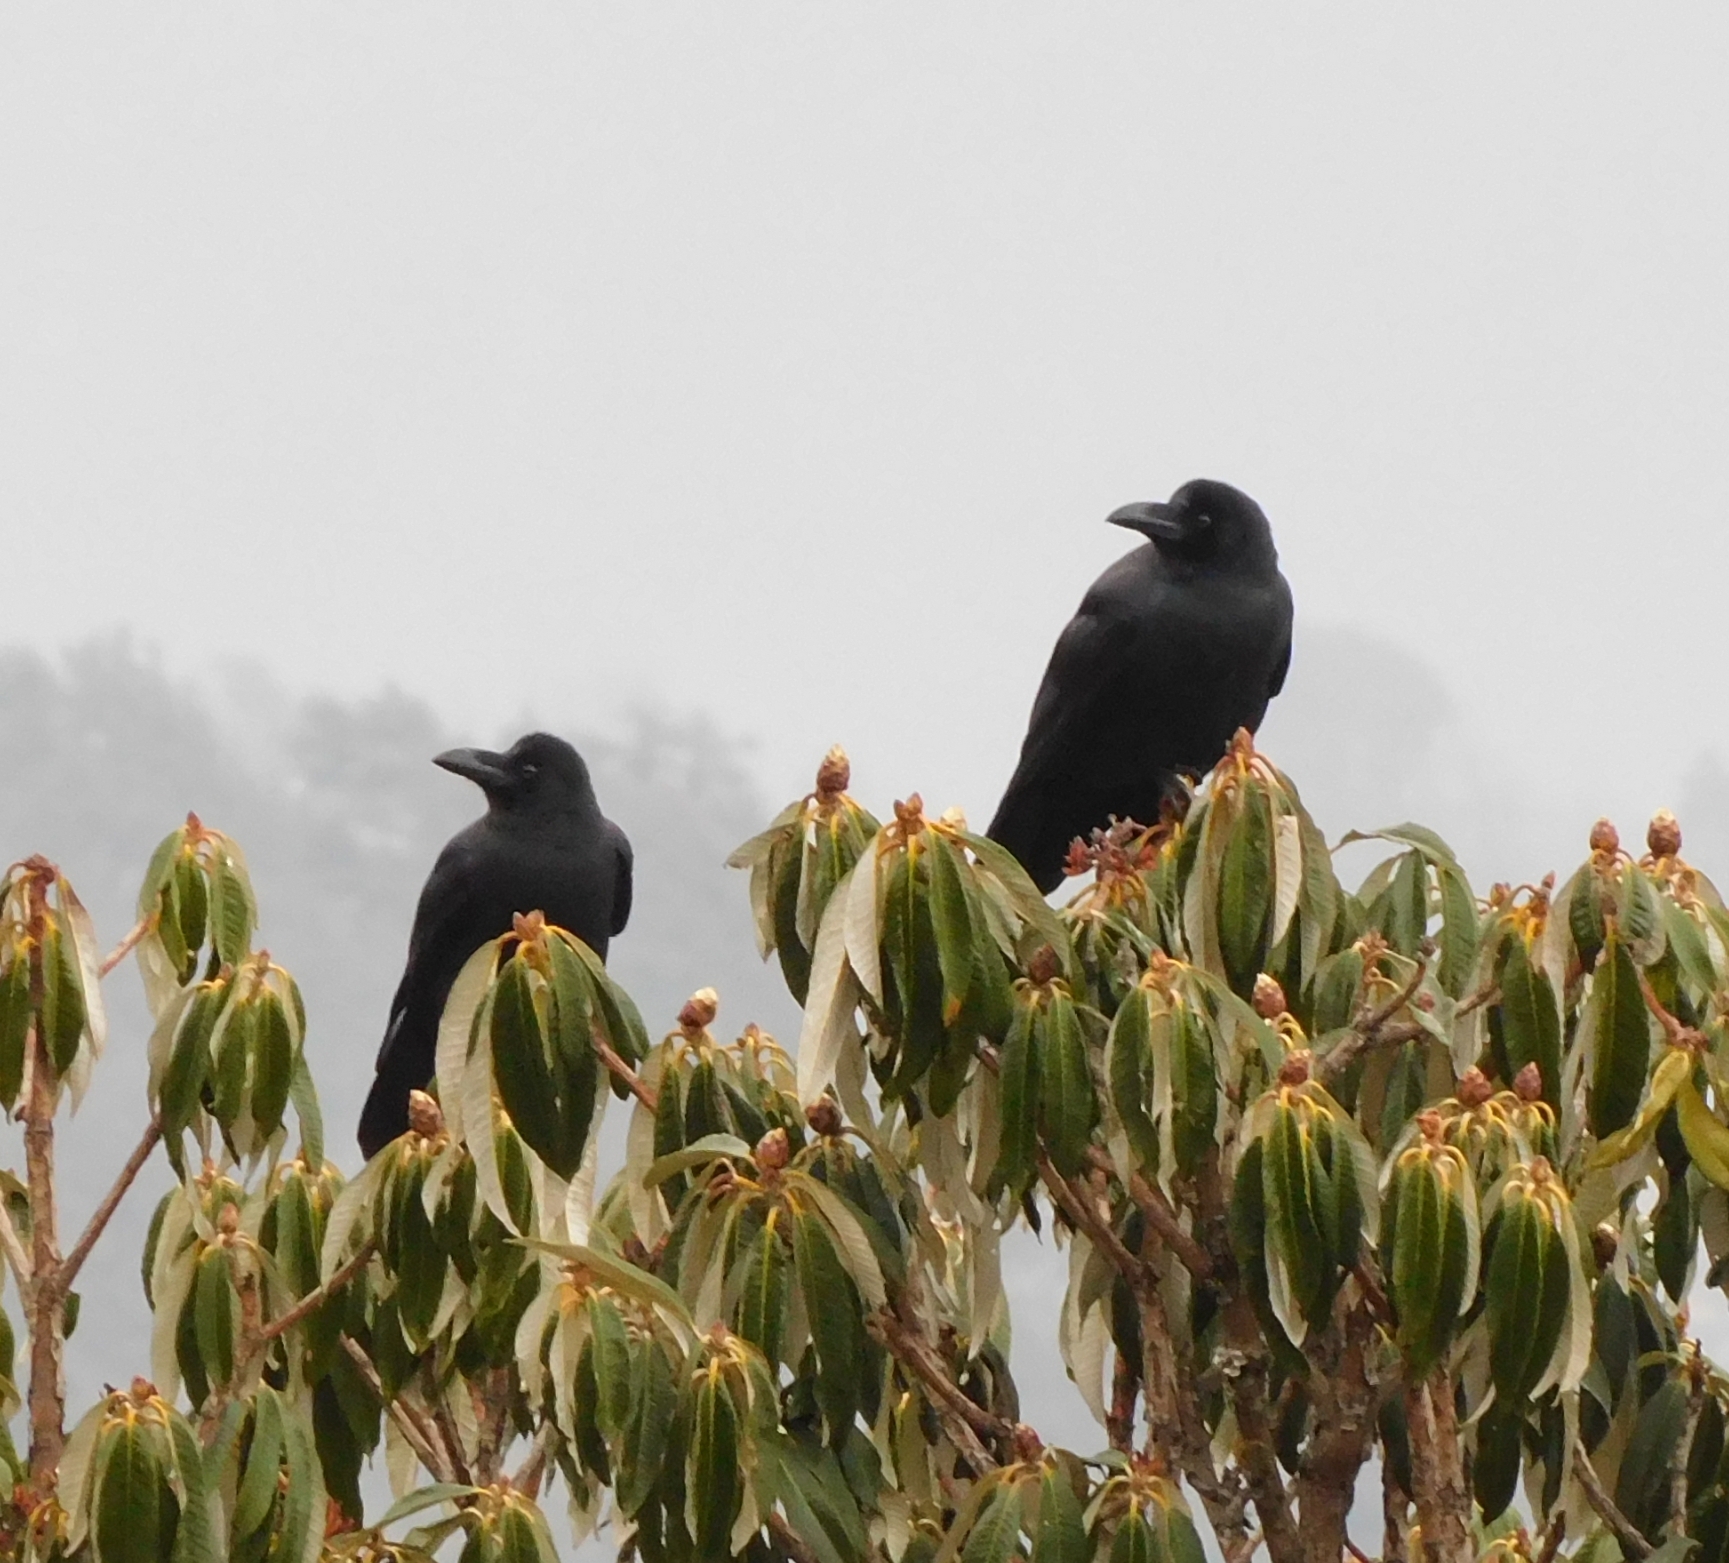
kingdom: Animalia
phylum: Chordata
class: Aves
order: Passeriformes
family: Corvidae
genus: Corvus
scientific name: Corvus macrorhynchos
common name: Large-billed crow
